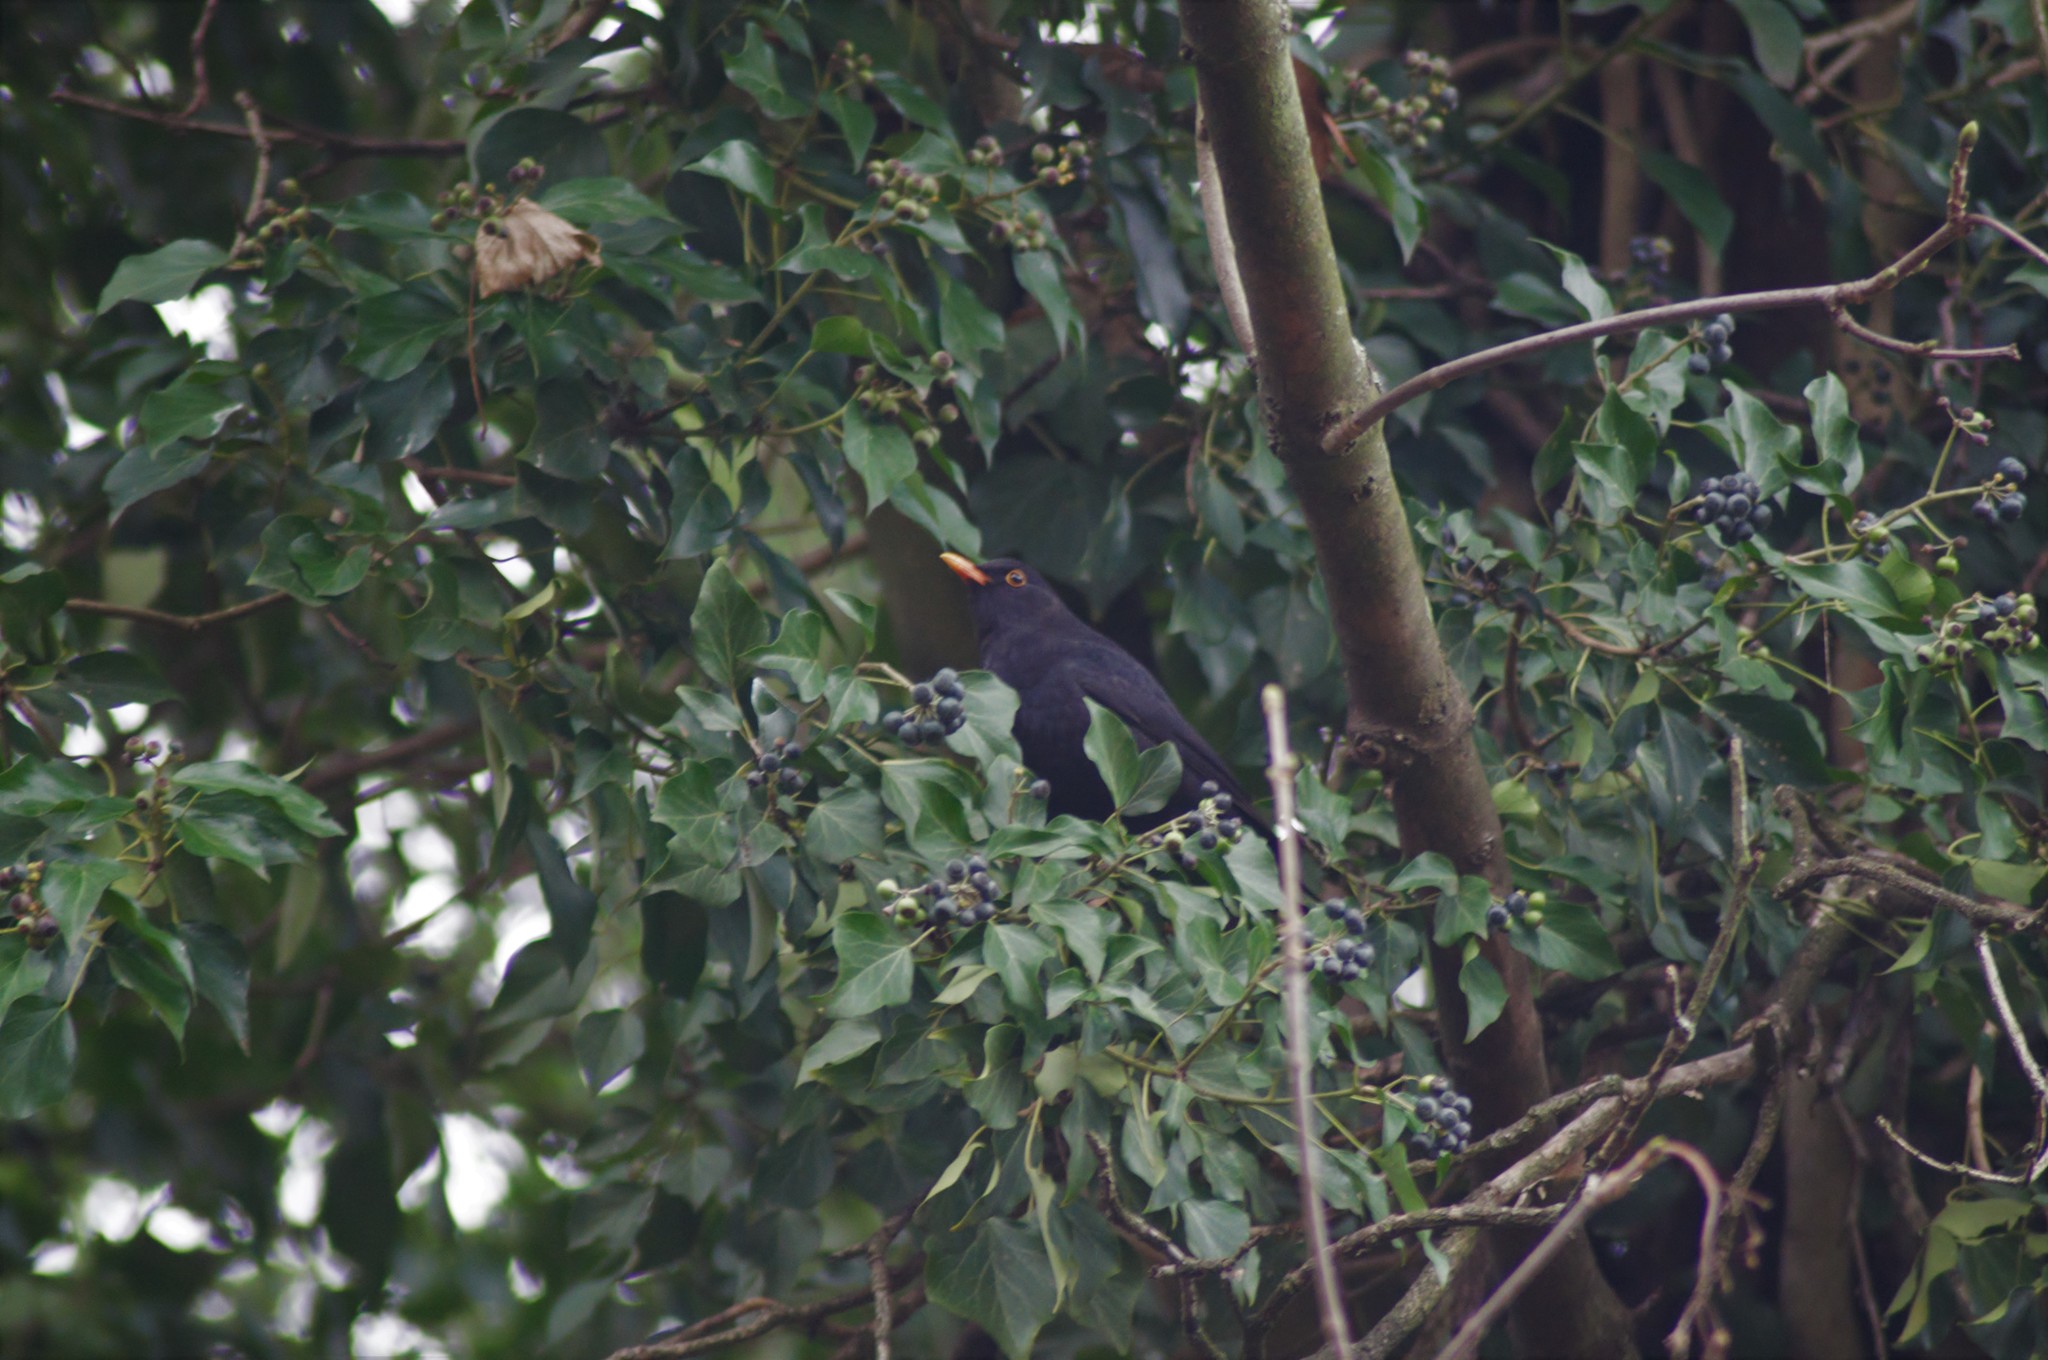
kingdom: Animalia
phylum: Chordata
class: Aves
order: Passeriformes
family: Turdidae
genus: Turdus
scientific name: Turdus merula
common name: Common blackbird
